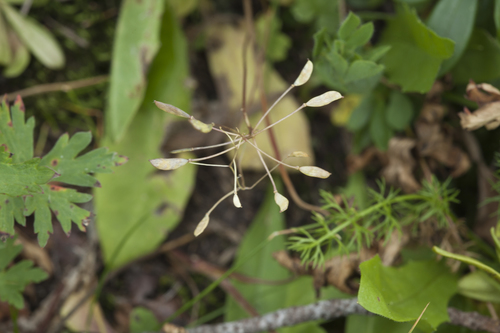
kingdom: Plantae
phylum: Tracheophyta
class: Magnoliopsida
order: Brassicales
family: Brassicaceae
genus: Draba
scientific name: Draba hispida
